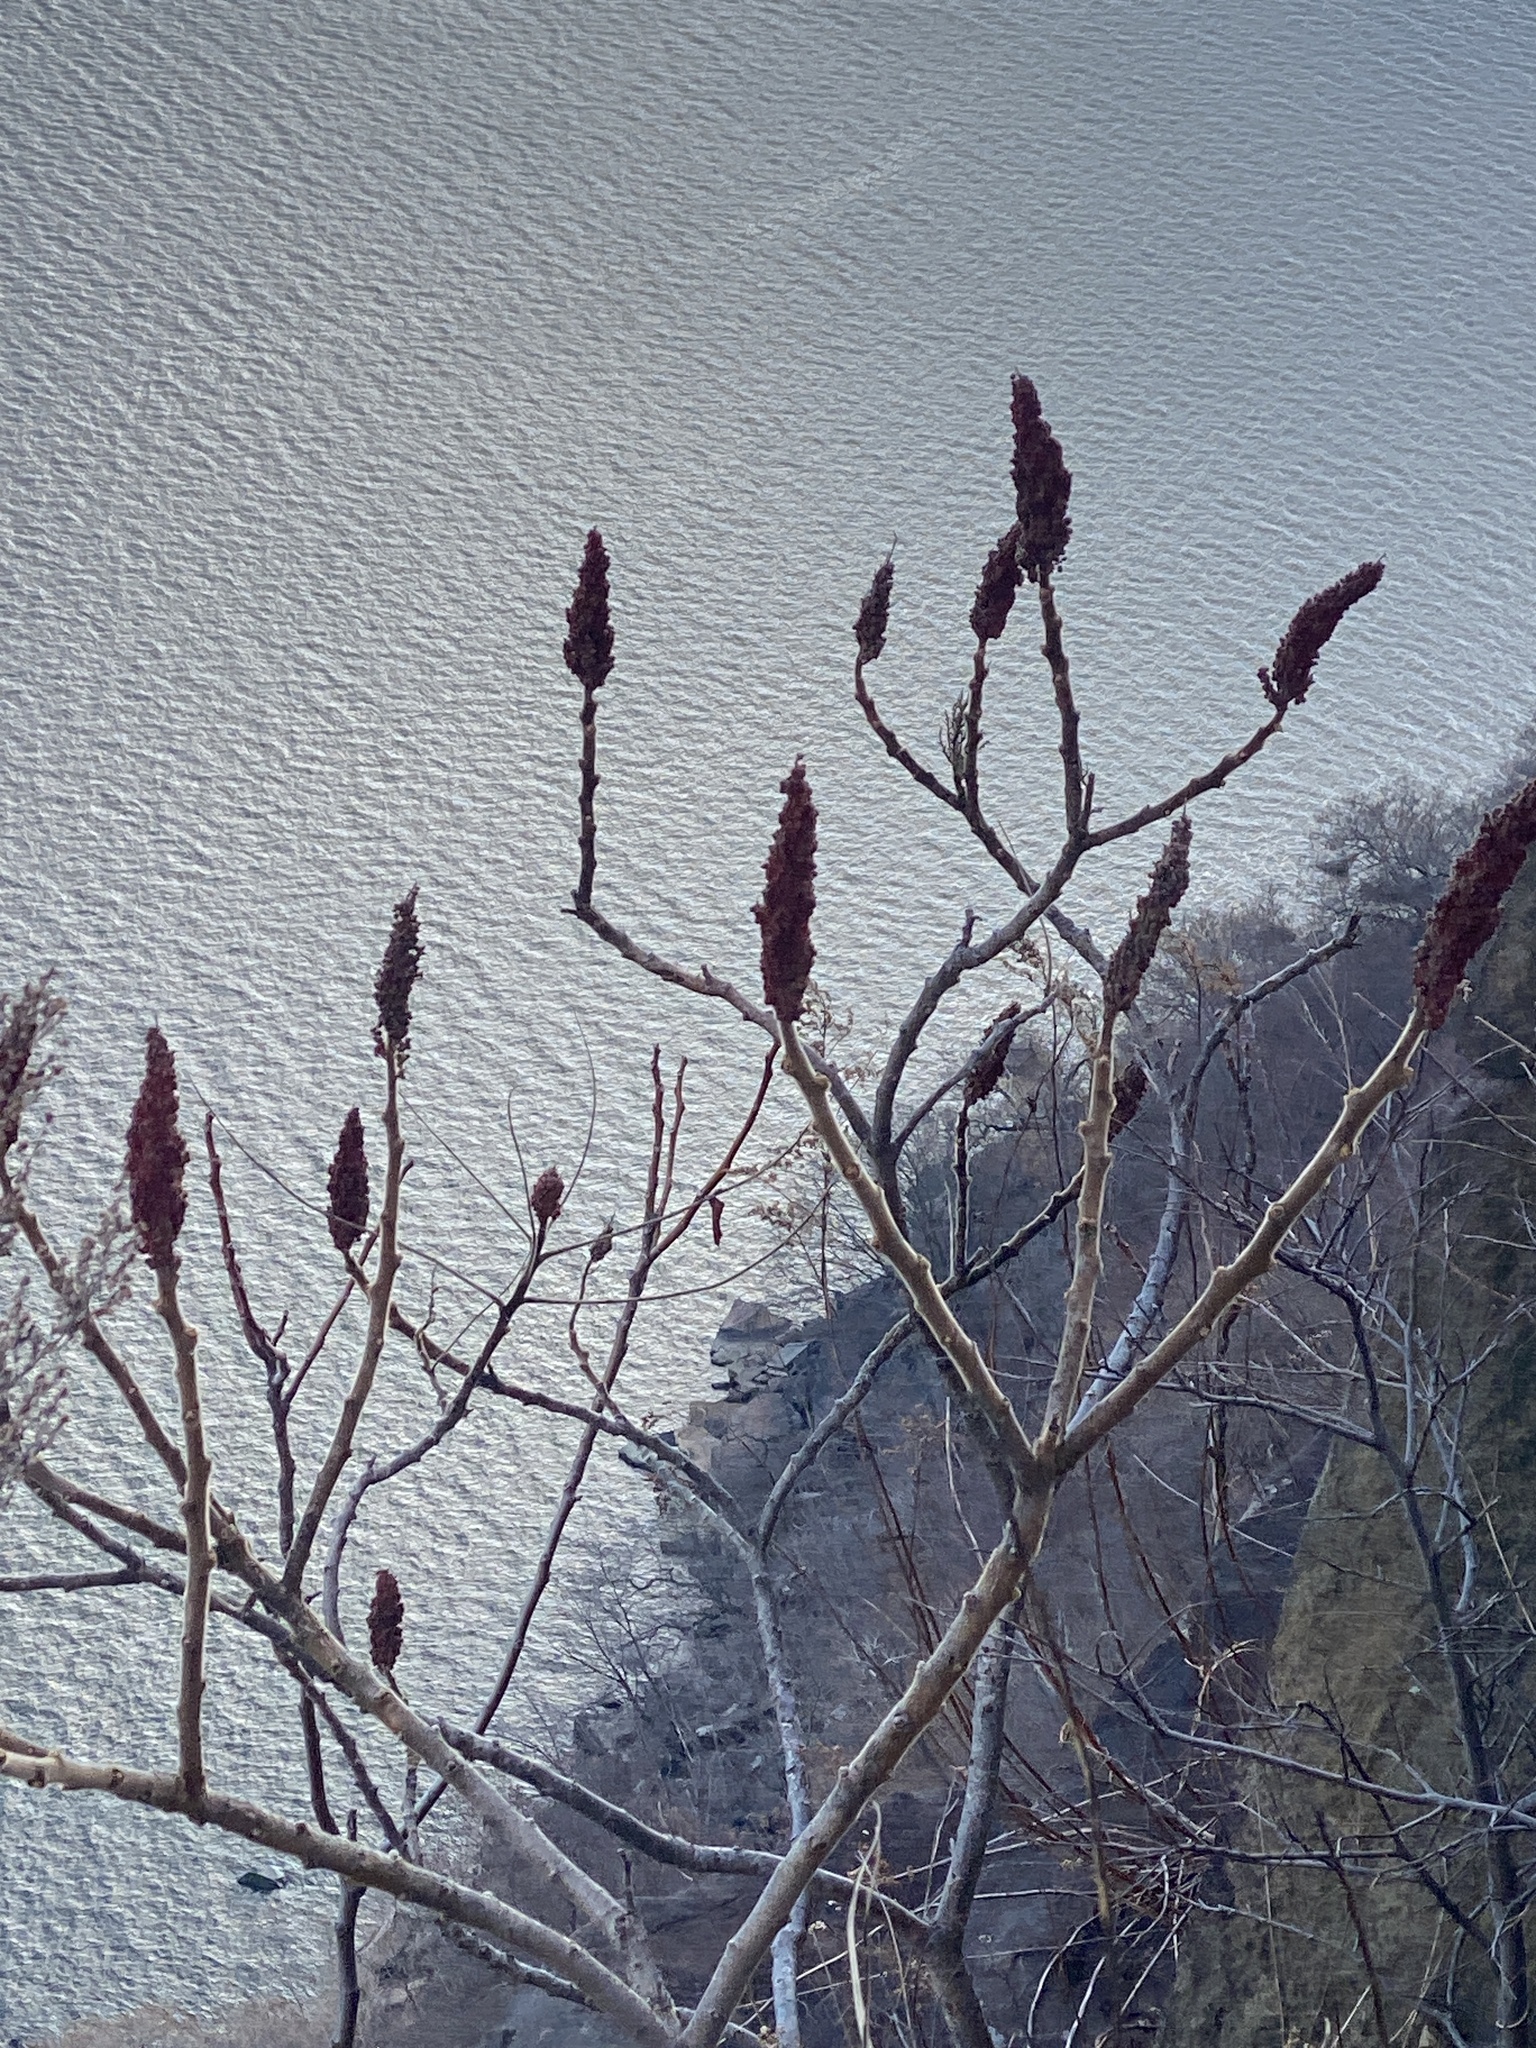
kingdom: Plantae
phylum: Tracheophyta
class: Magnoliopsida
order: Sapindales
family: Anacardiaceae
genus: Rhus
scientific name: Rhus typhina
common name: Staghorn sumac
